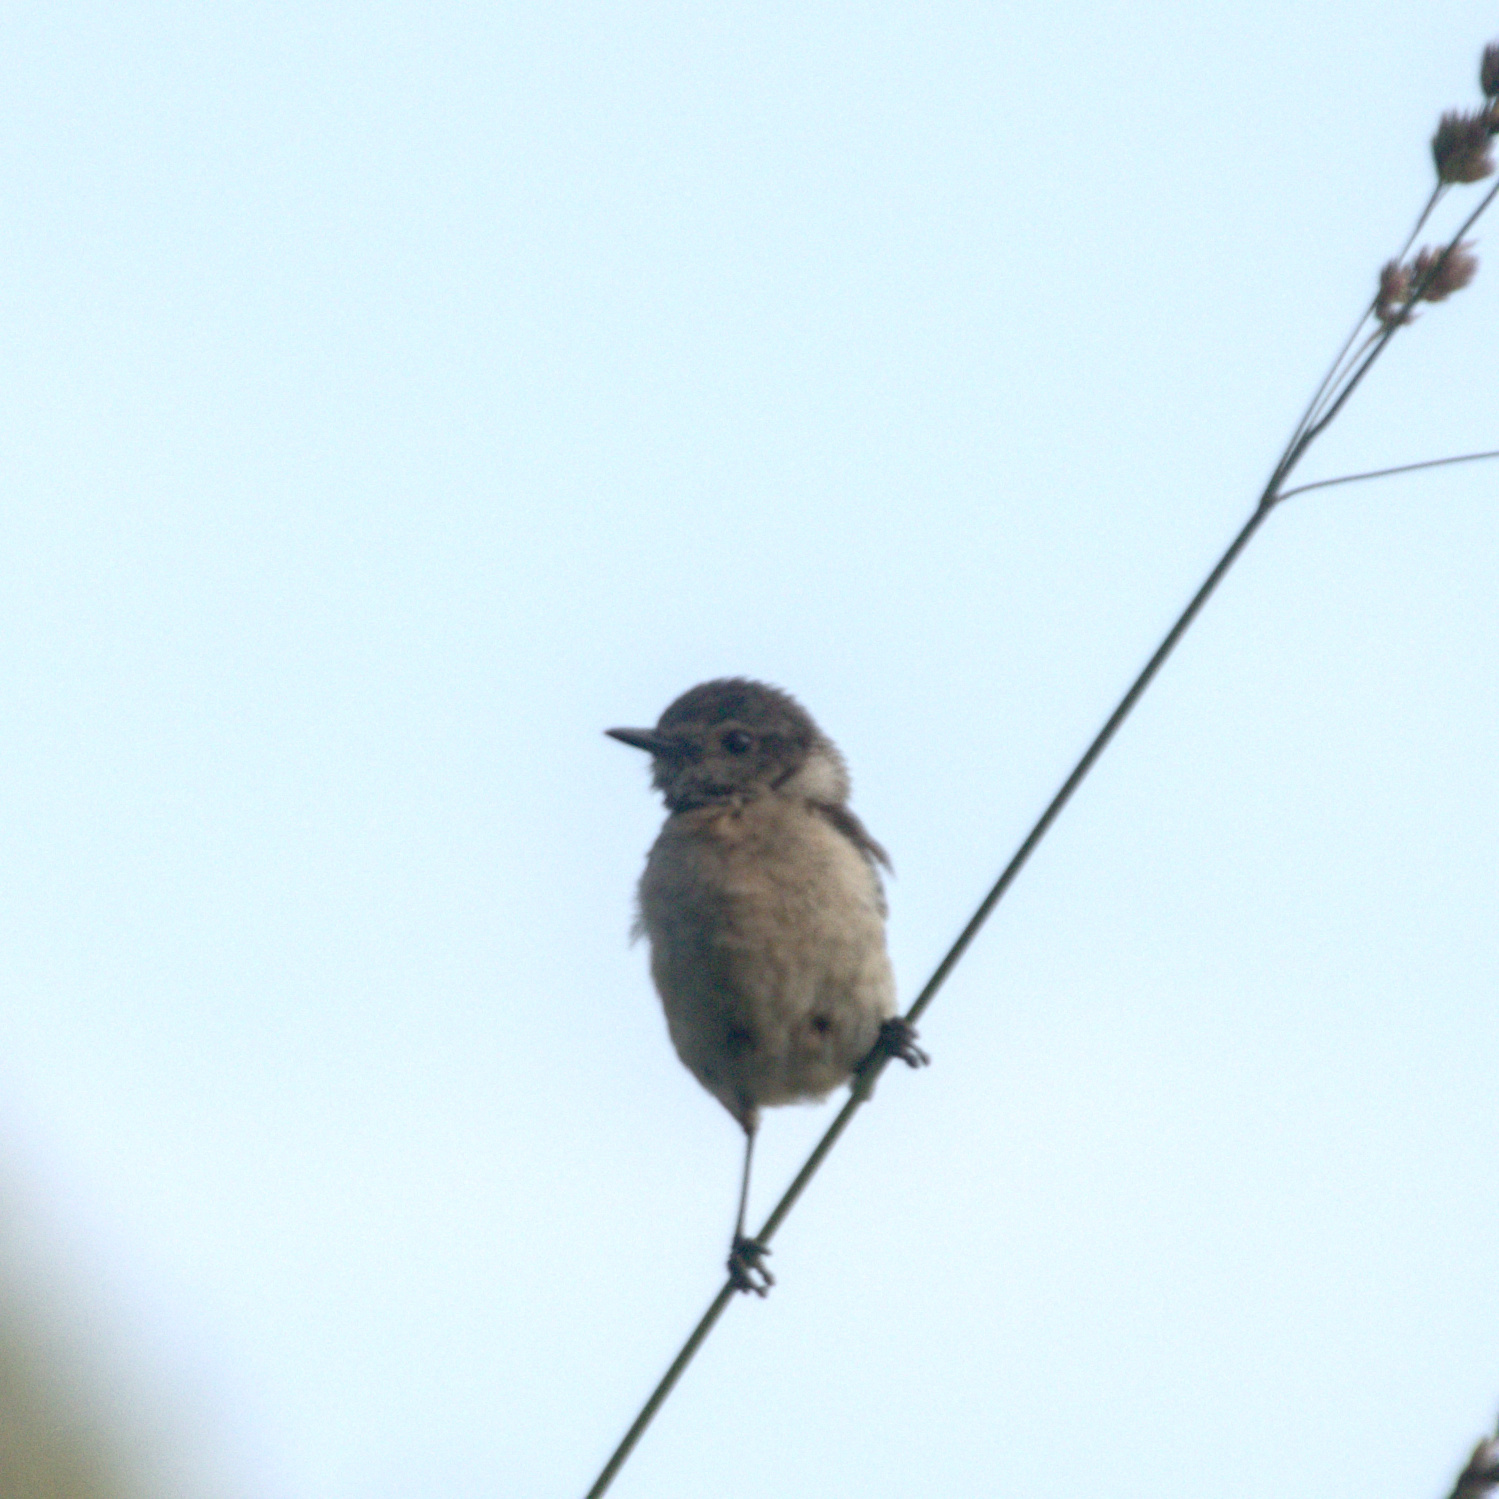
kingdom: Animalia
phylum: Chordata
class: Aves
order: Passeriformes
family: Muscicapidae
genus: Saxicola
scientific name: Saxicola maurus
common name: Siberian stonechat
